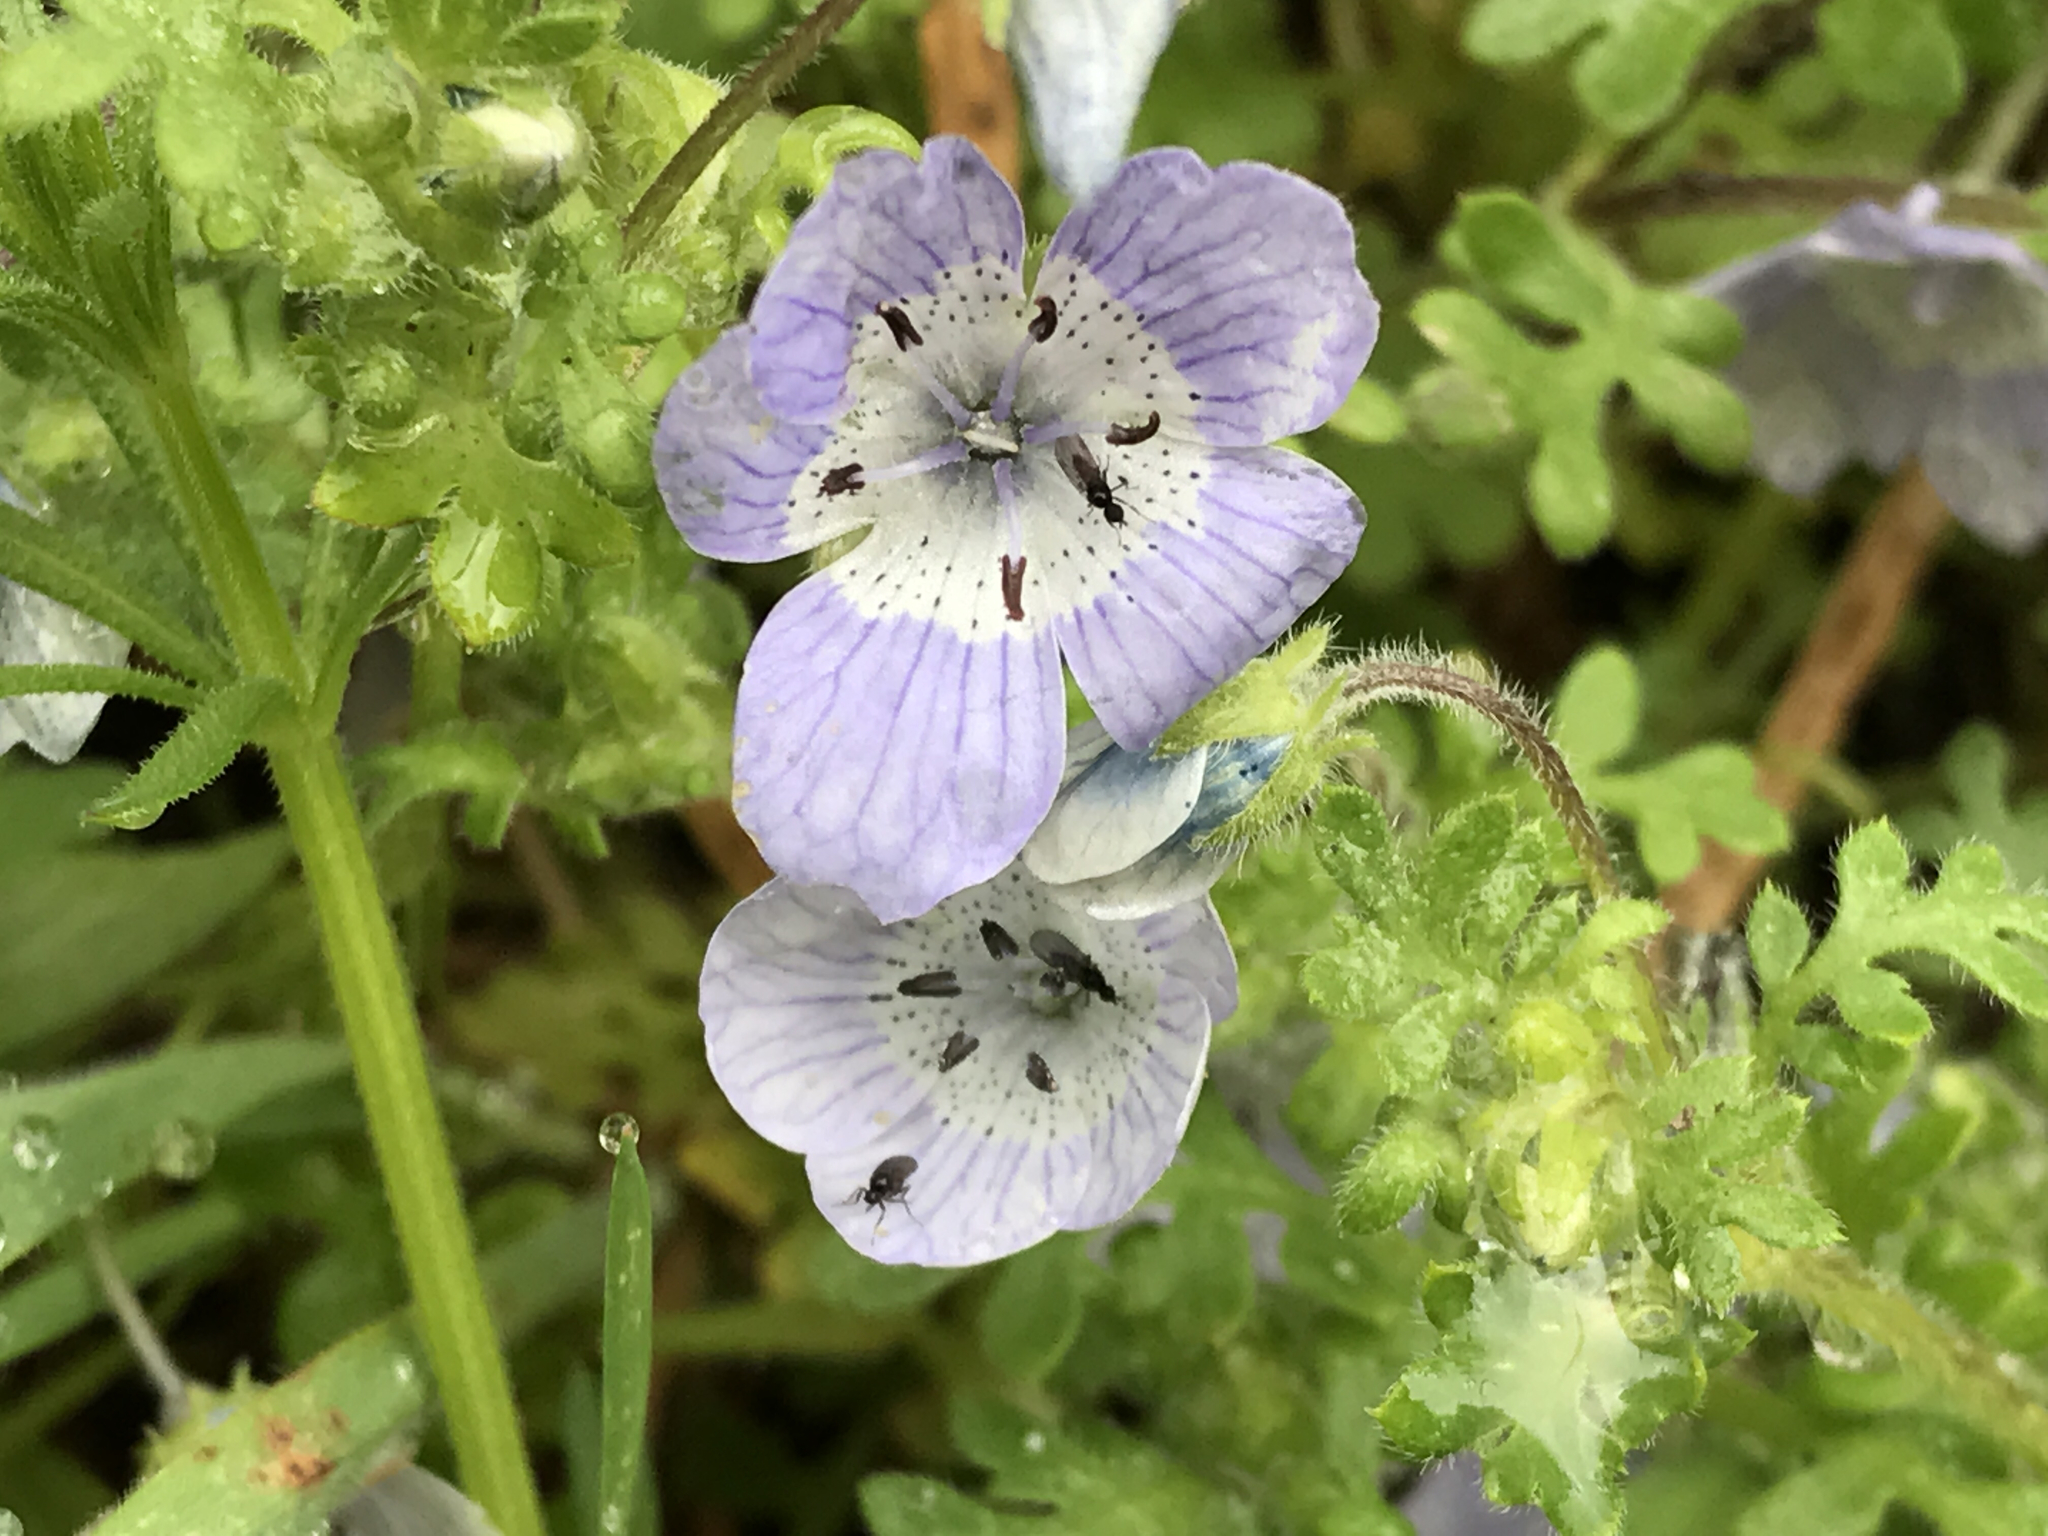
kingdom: Plantae
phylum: Tracheophyta
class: Magnoliopsida
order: Boraginales
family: Hydrophyllaceae
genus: Nemophila
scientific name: Nemophila menziesii
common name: Baby's-blue-eyes
